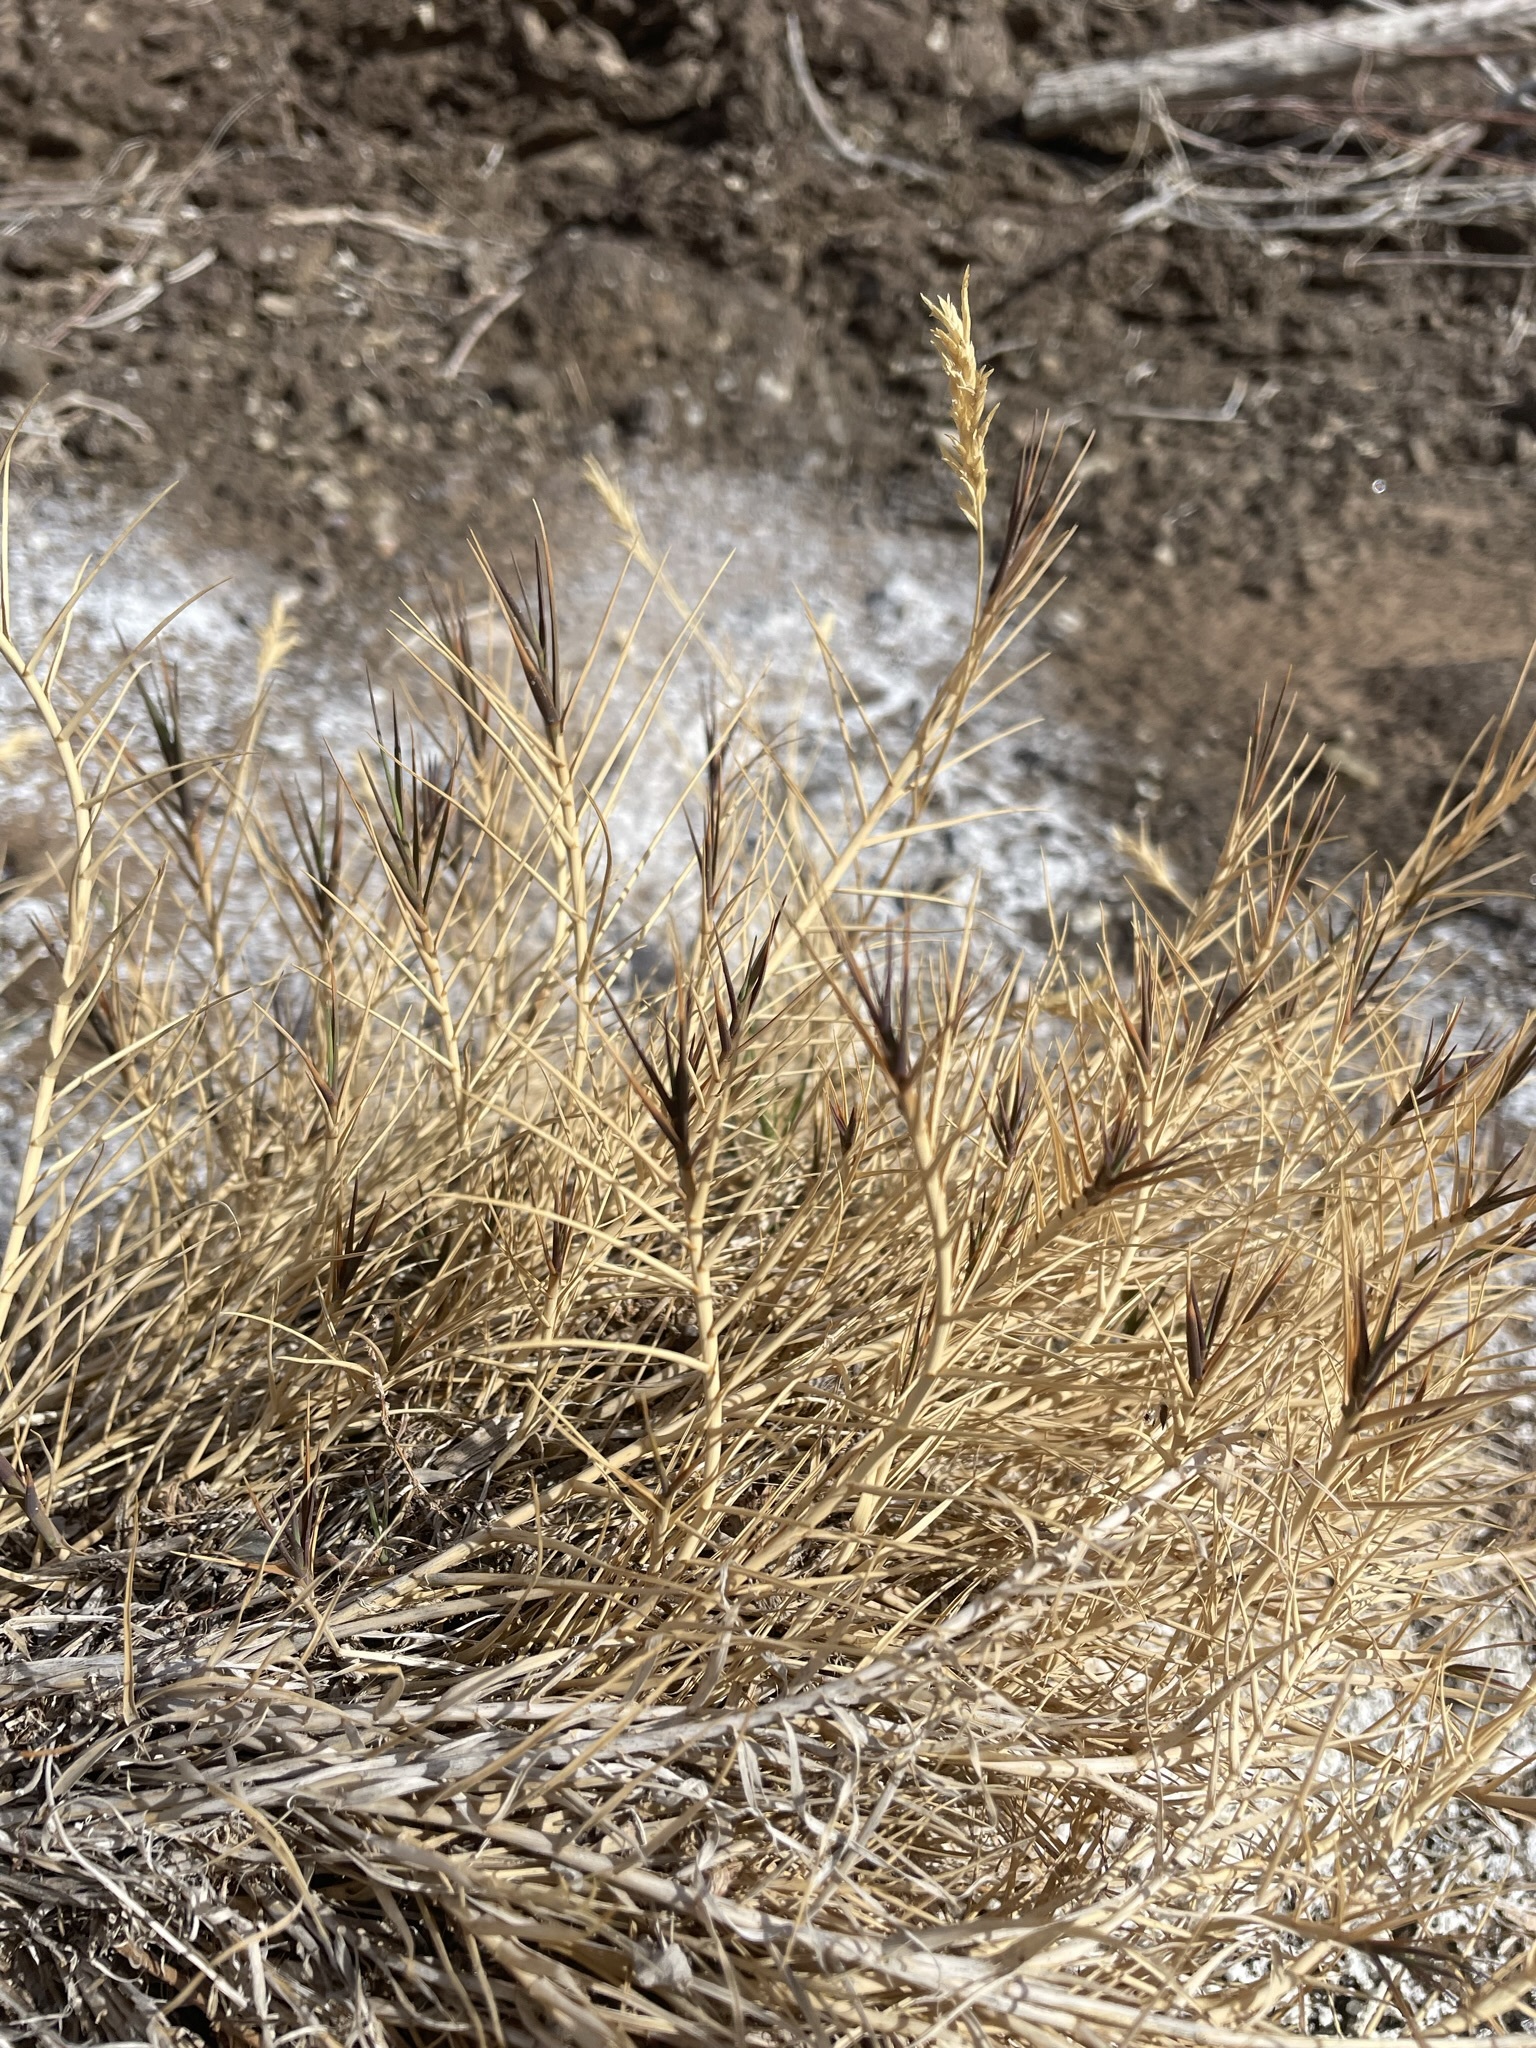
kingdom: Plantae
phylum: Tracheophyta
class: Liliopsida
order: Poales
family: Poaceae
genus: Distichlis
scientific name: Distichlis spicata
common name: Saltgrass
